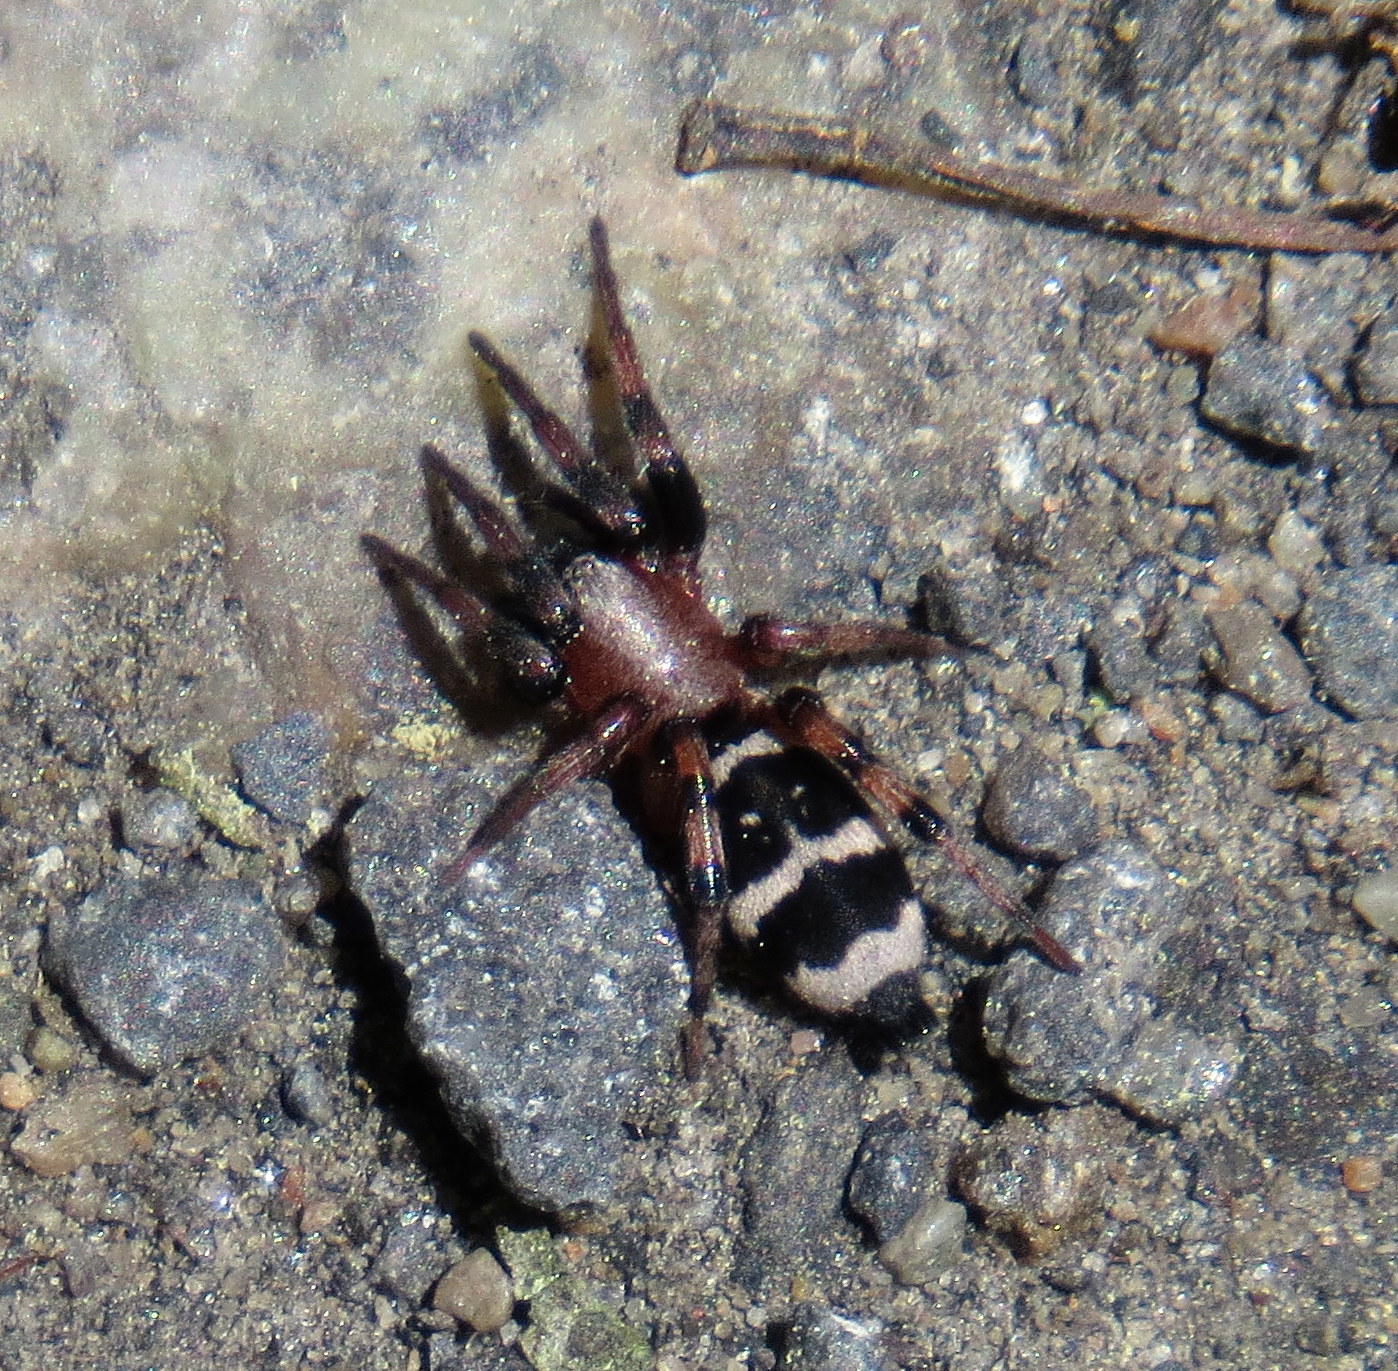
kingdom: Animalia
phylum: Arthropoda
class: Arachnida
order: Araneae
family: Gnaphosidae
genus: Sergiolus
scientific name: Sergiolus ocellatus
